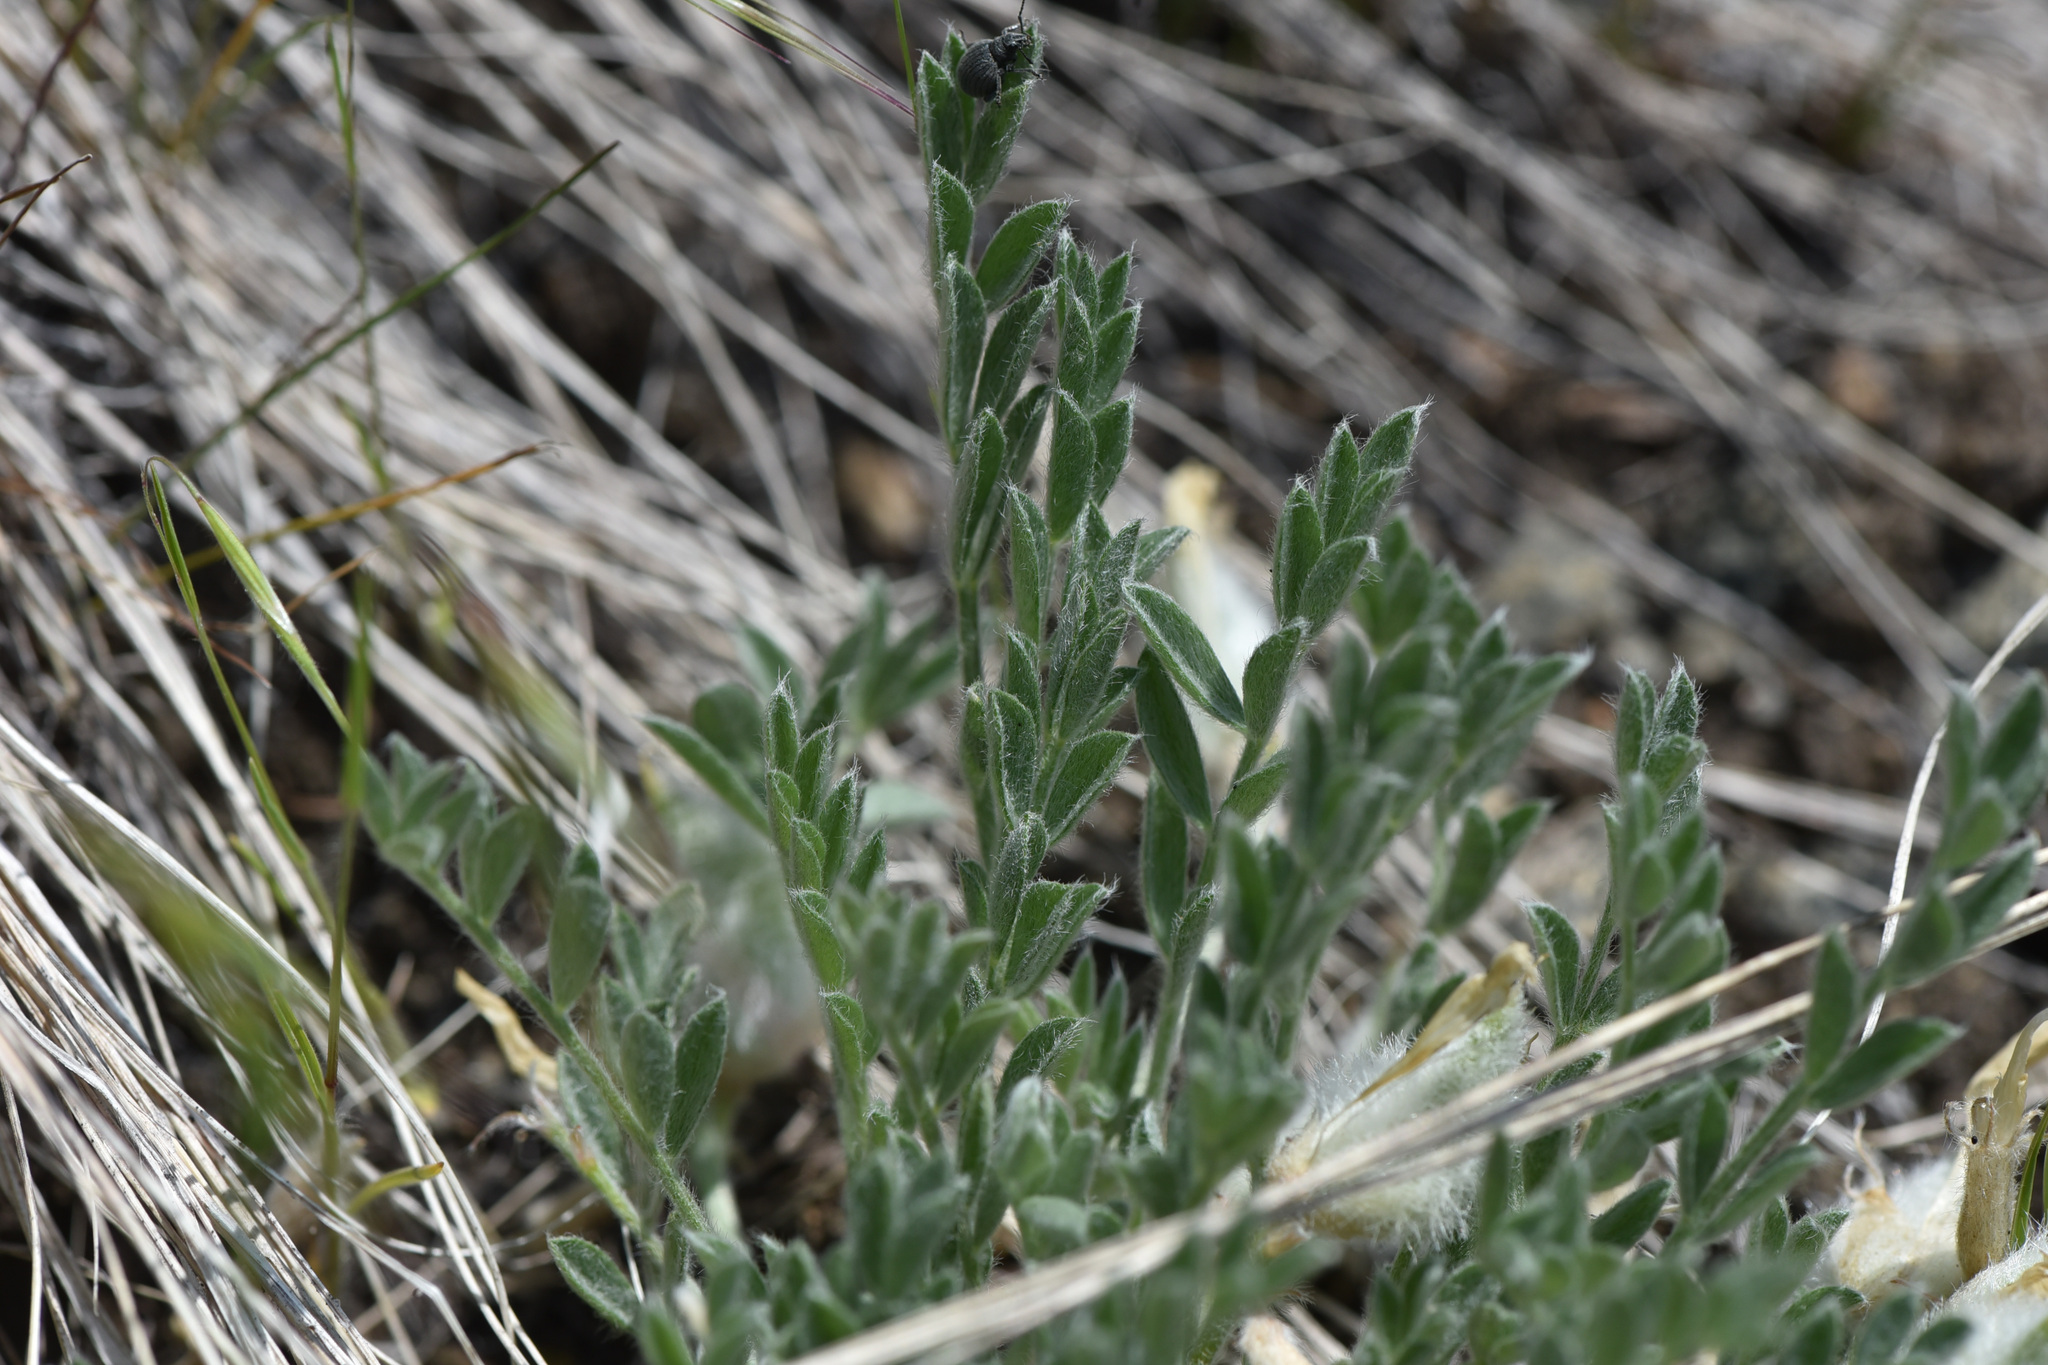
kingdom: Plantae
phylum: Tracheophyta
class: Magnoliopsida
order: Fabales
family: Fabaceae
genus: Astragalus
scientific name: Astragalus purshii
